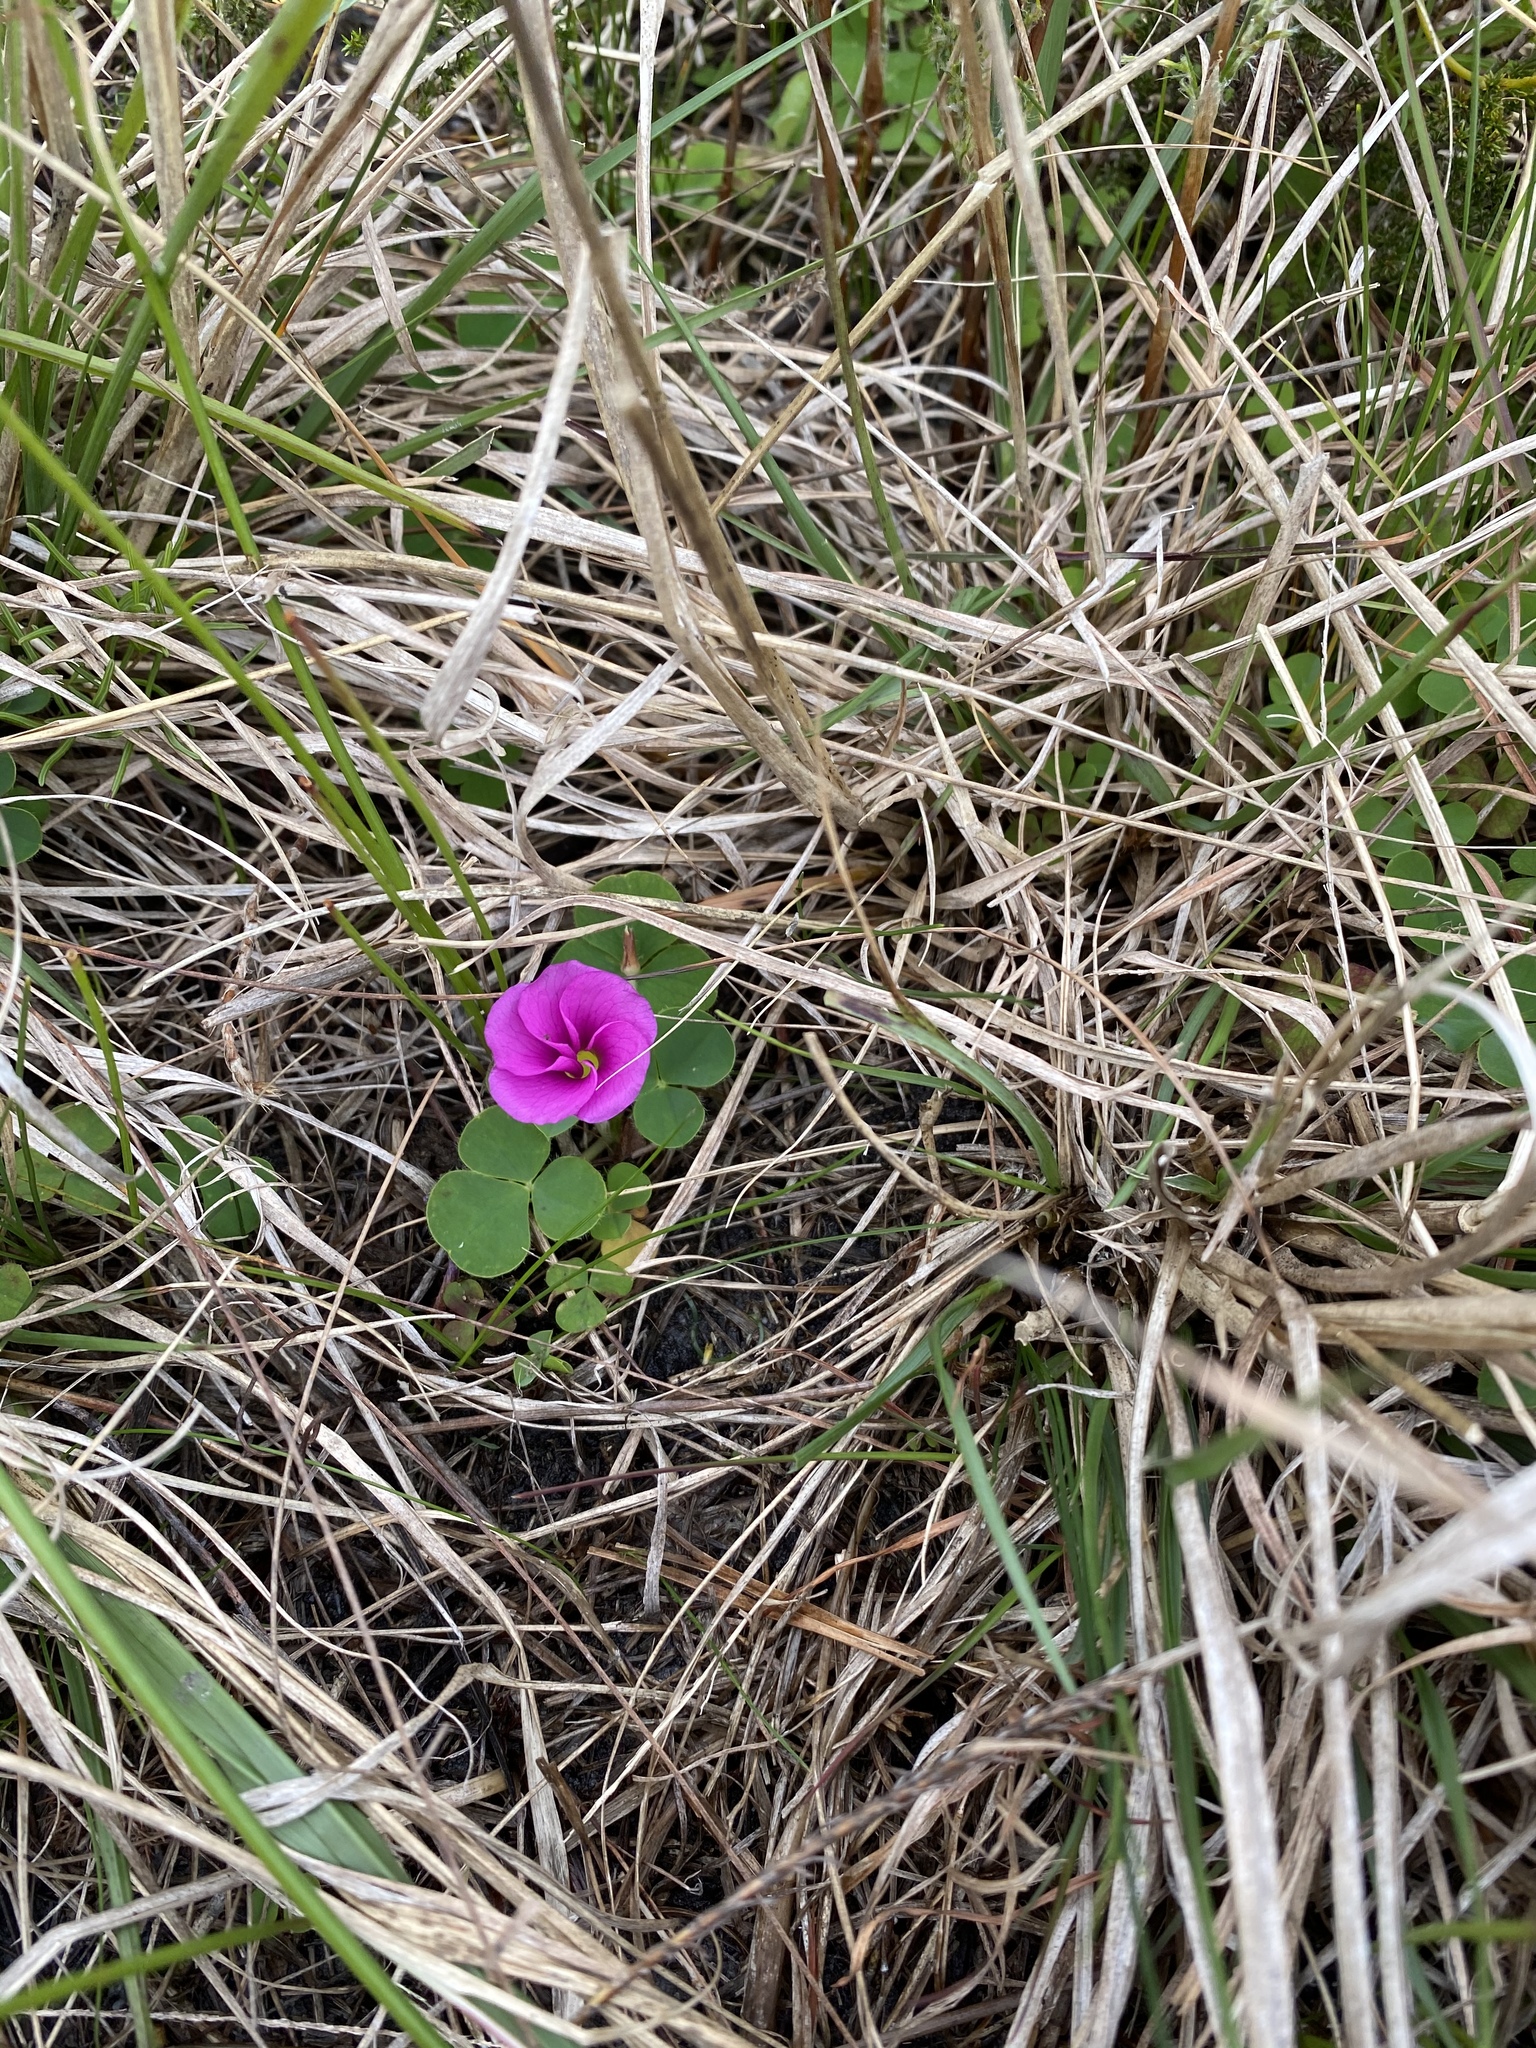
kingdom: Plantae
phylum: Tracheophyta
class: Magnoliopsida
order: Oxalidales
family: Oxalidaceae
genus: Oxalis
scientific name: Oxalis purpurea
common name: Purple woodsorrel
